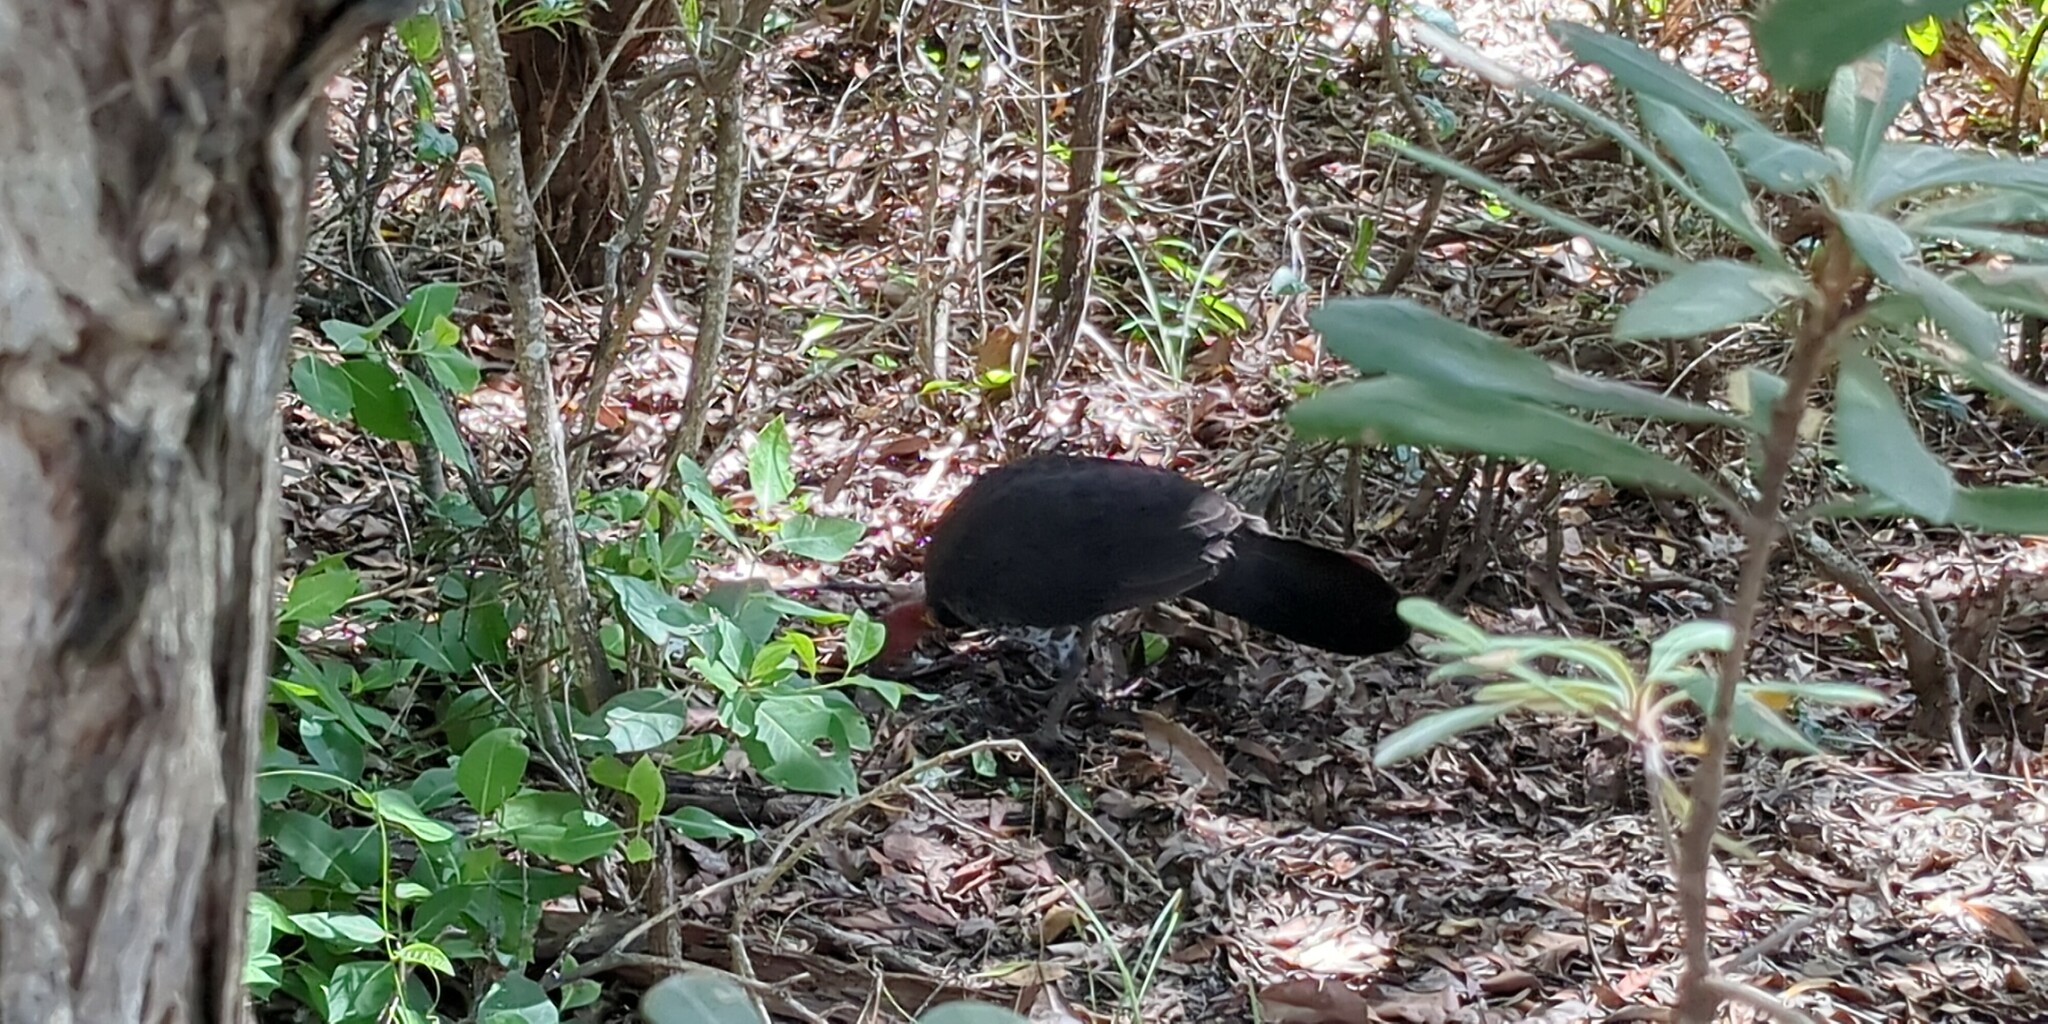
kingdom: Animalia
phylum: Chordata
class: Aves
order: Galliformes
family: Megapodiidae
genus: Alectura
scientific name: Alectura lathami
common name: Australian brushturkey
